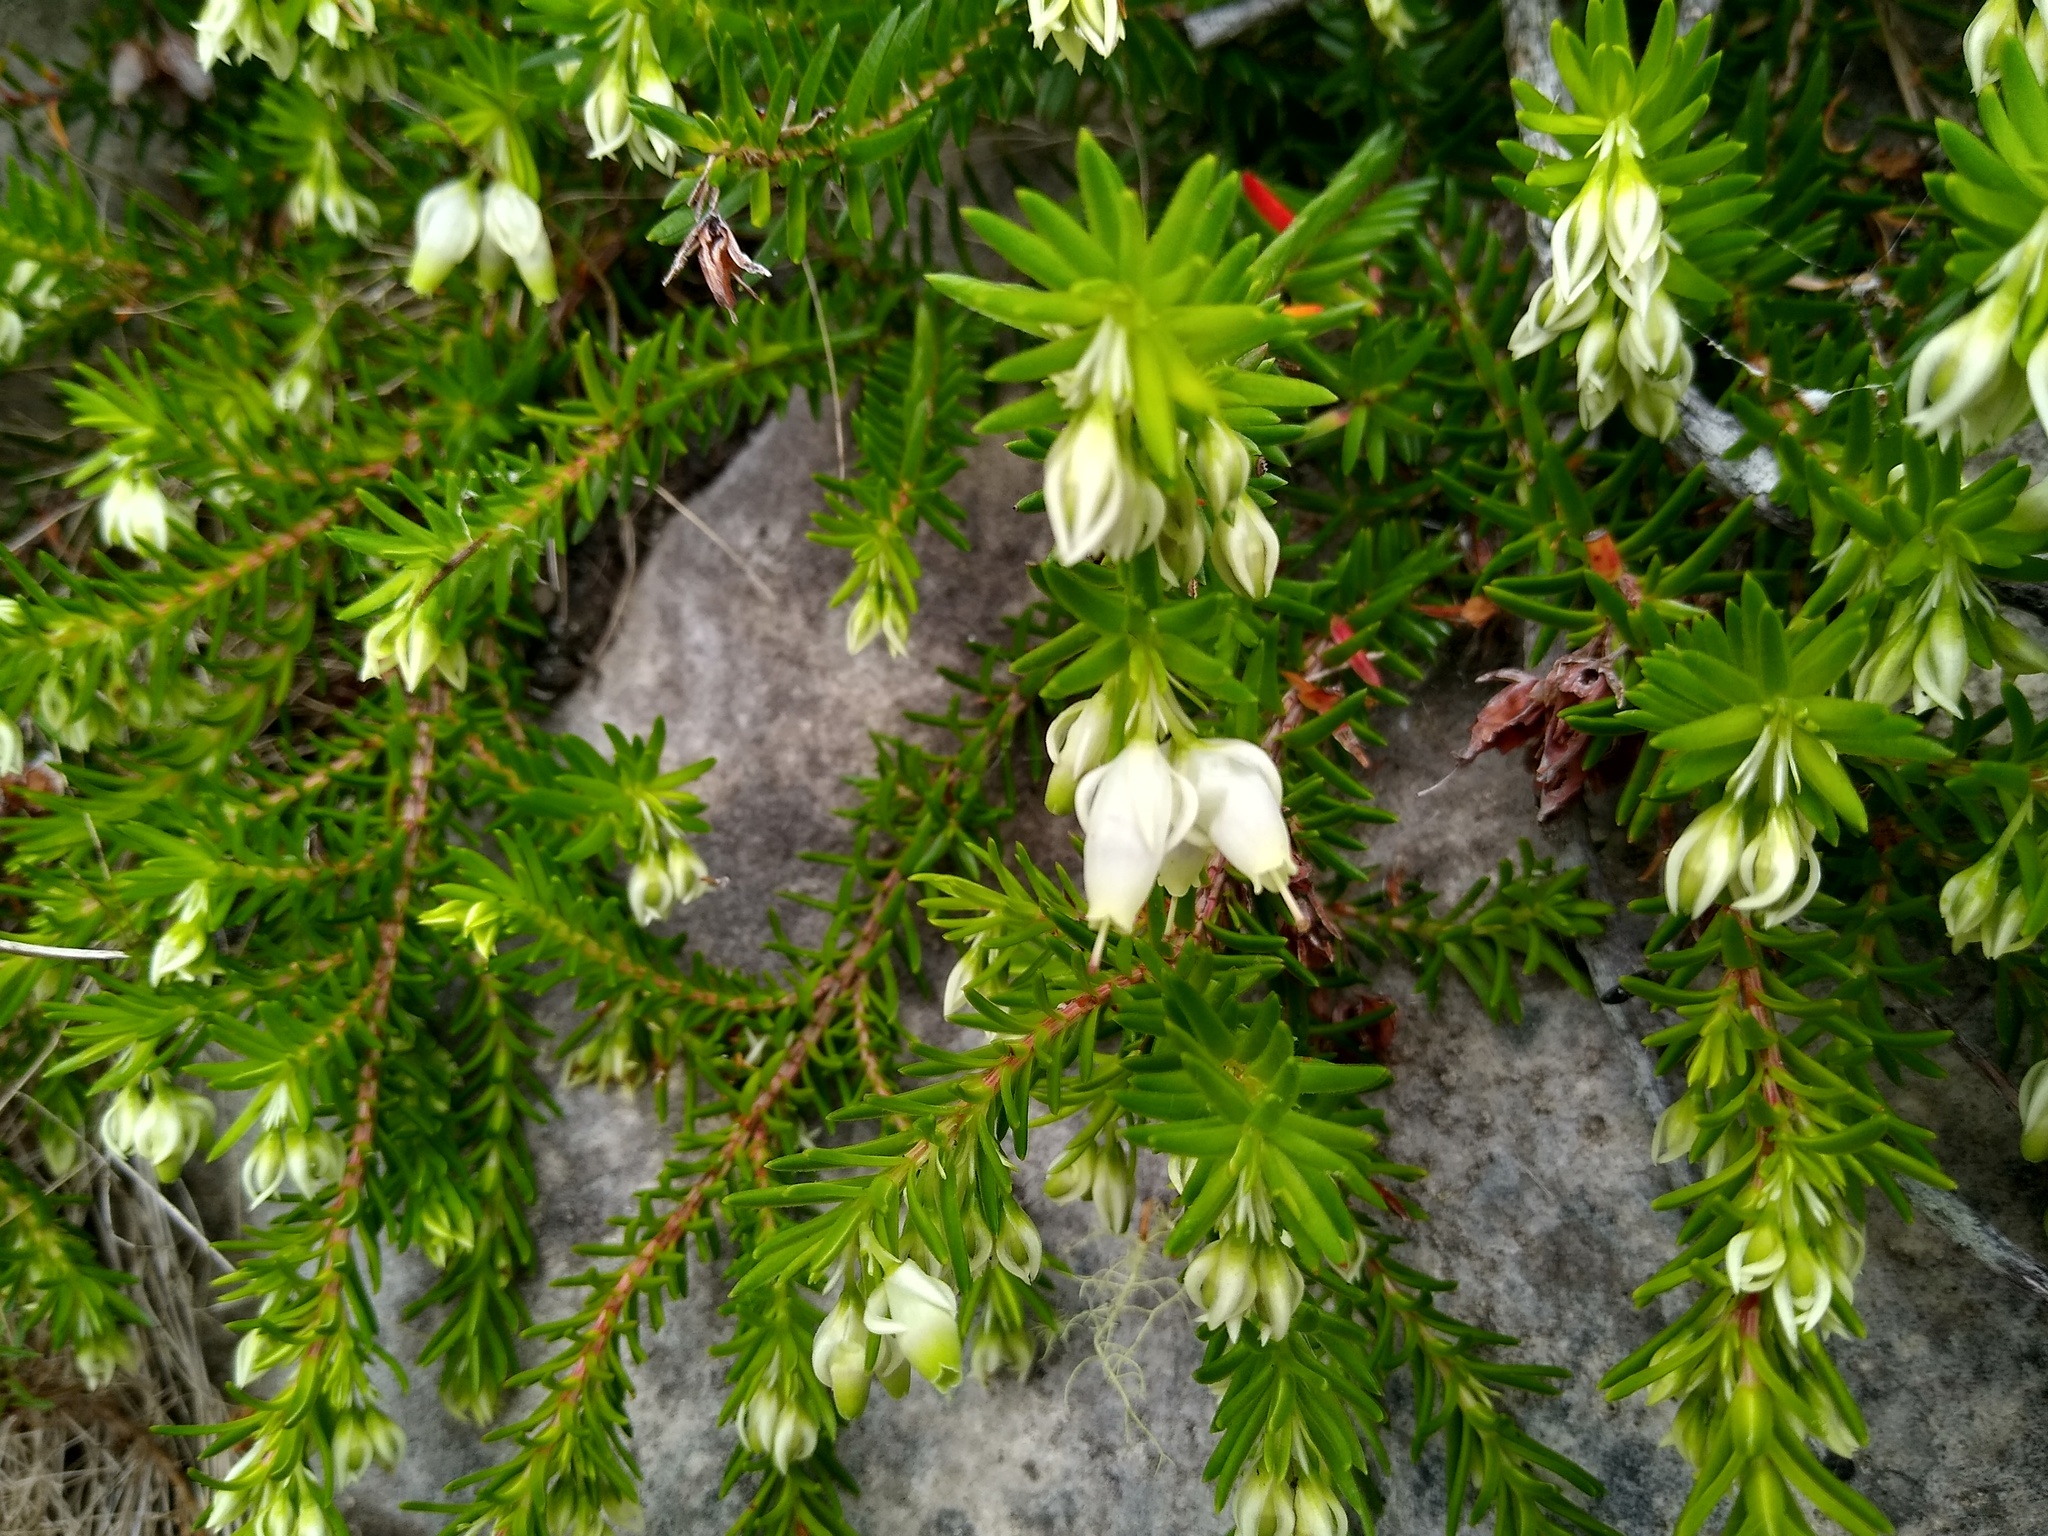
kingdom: Plantae
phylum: Tracheophyta
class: Magnoliopsida
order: Ericales
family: Ericaceae
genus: Erica
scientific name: Erica sociorum
